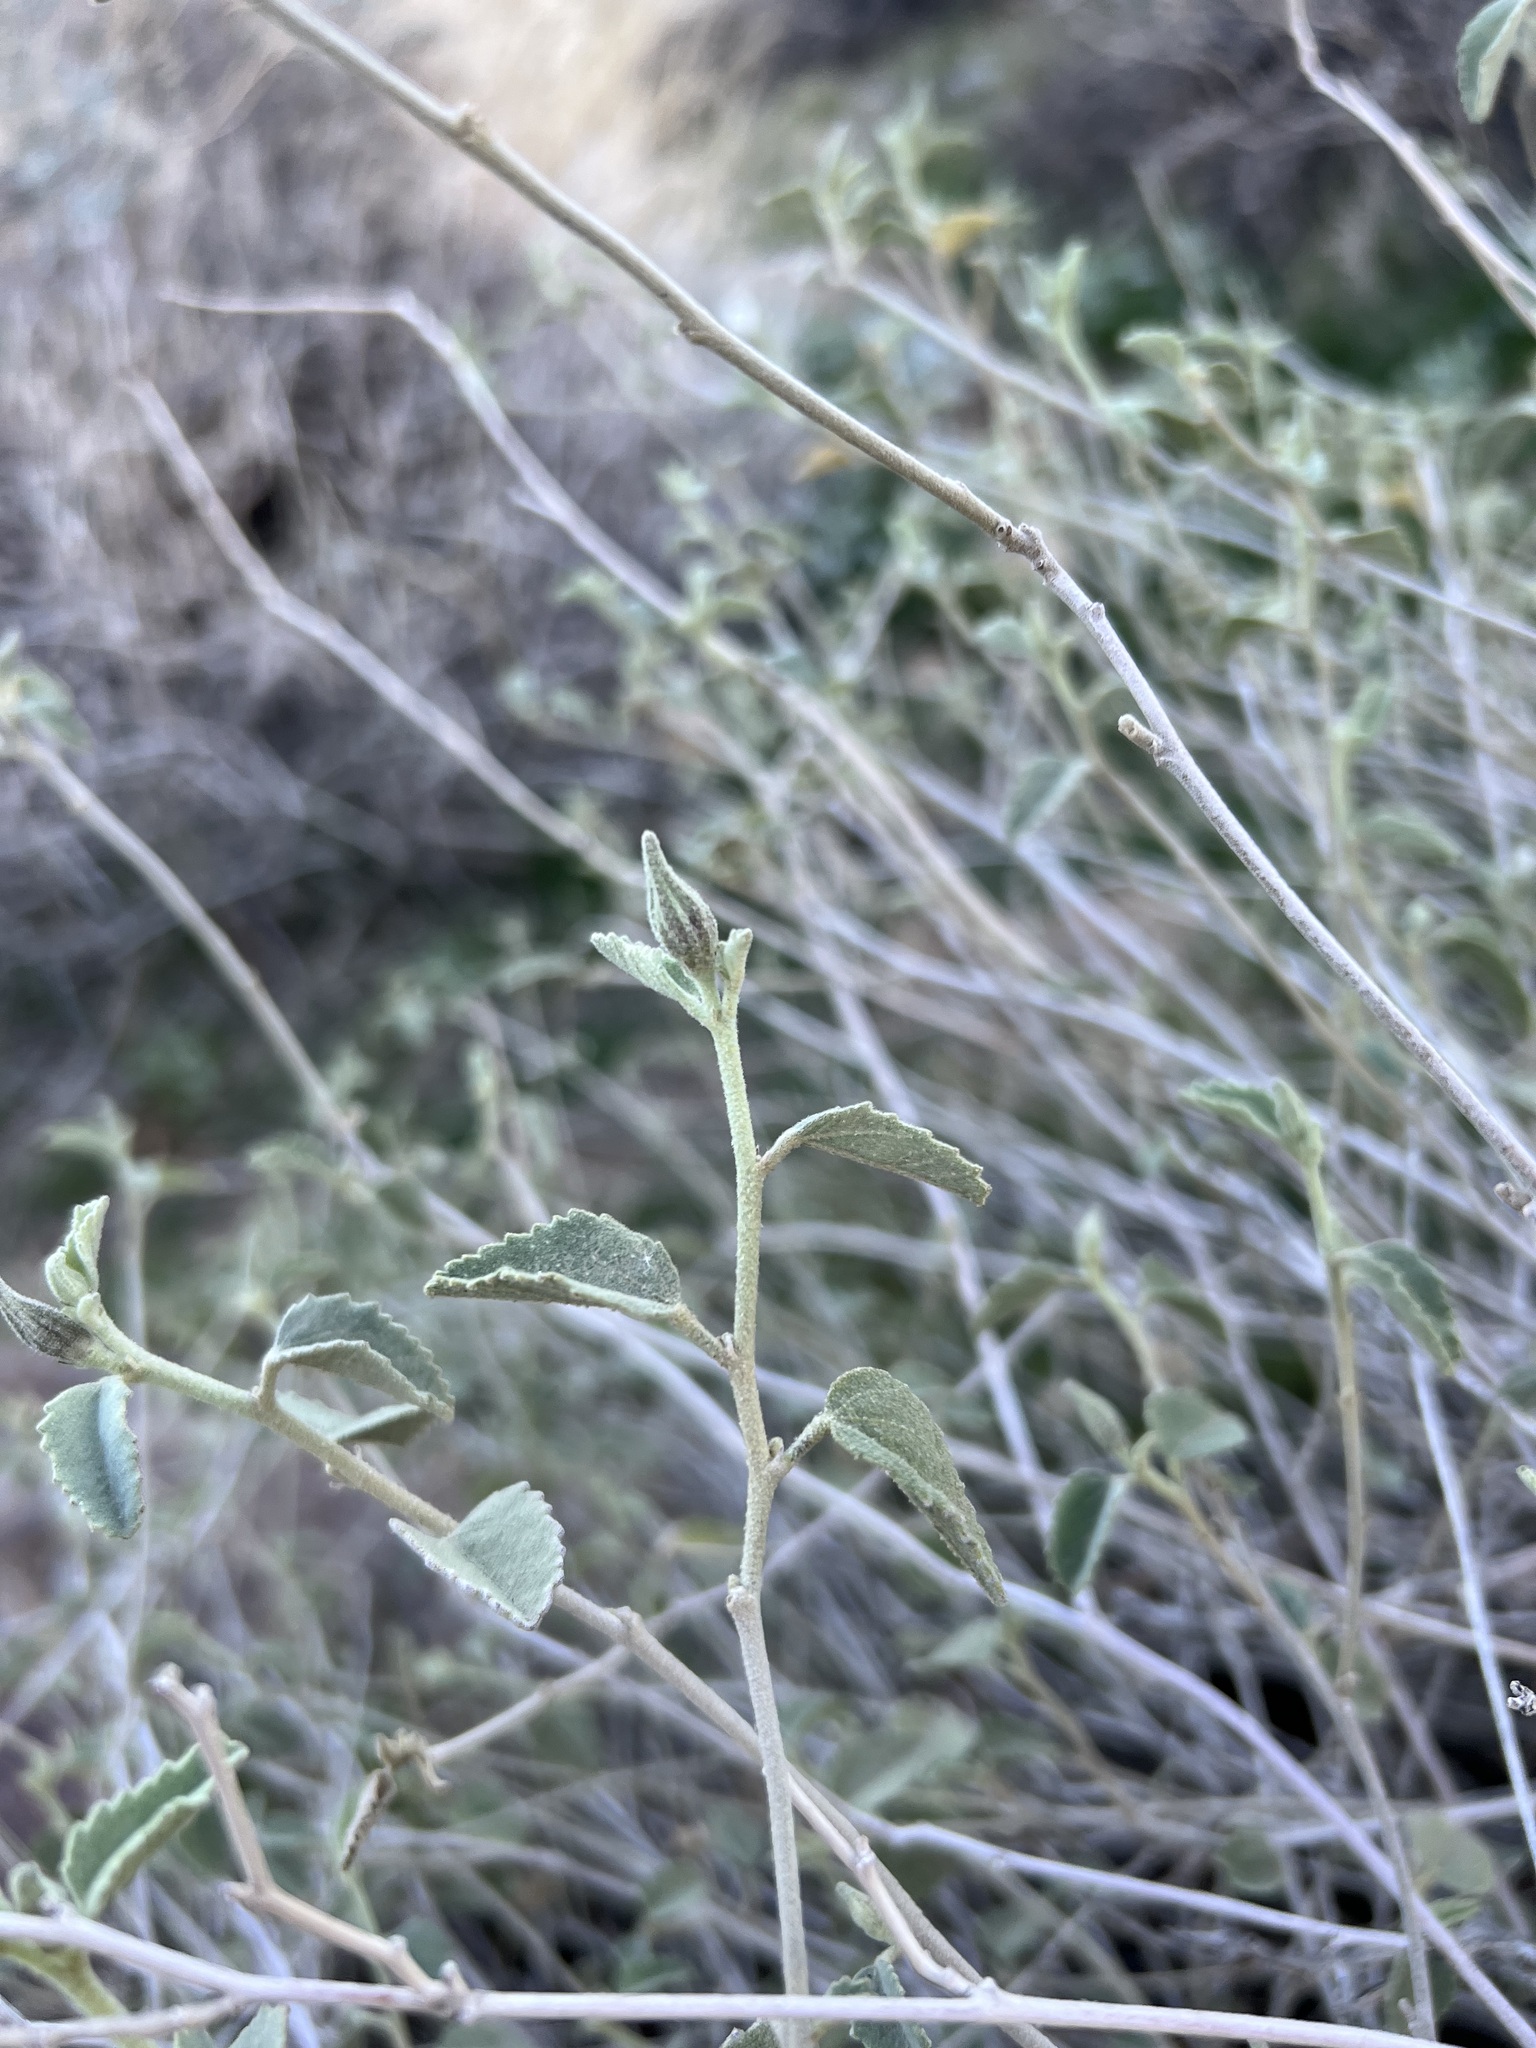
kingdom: Plantae
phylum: Tracheophyta
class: Magnoliopsida
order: Malvales
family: Malvaceae
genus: Hibiscus
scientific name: Hibiscus denudatus
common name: Paleface
